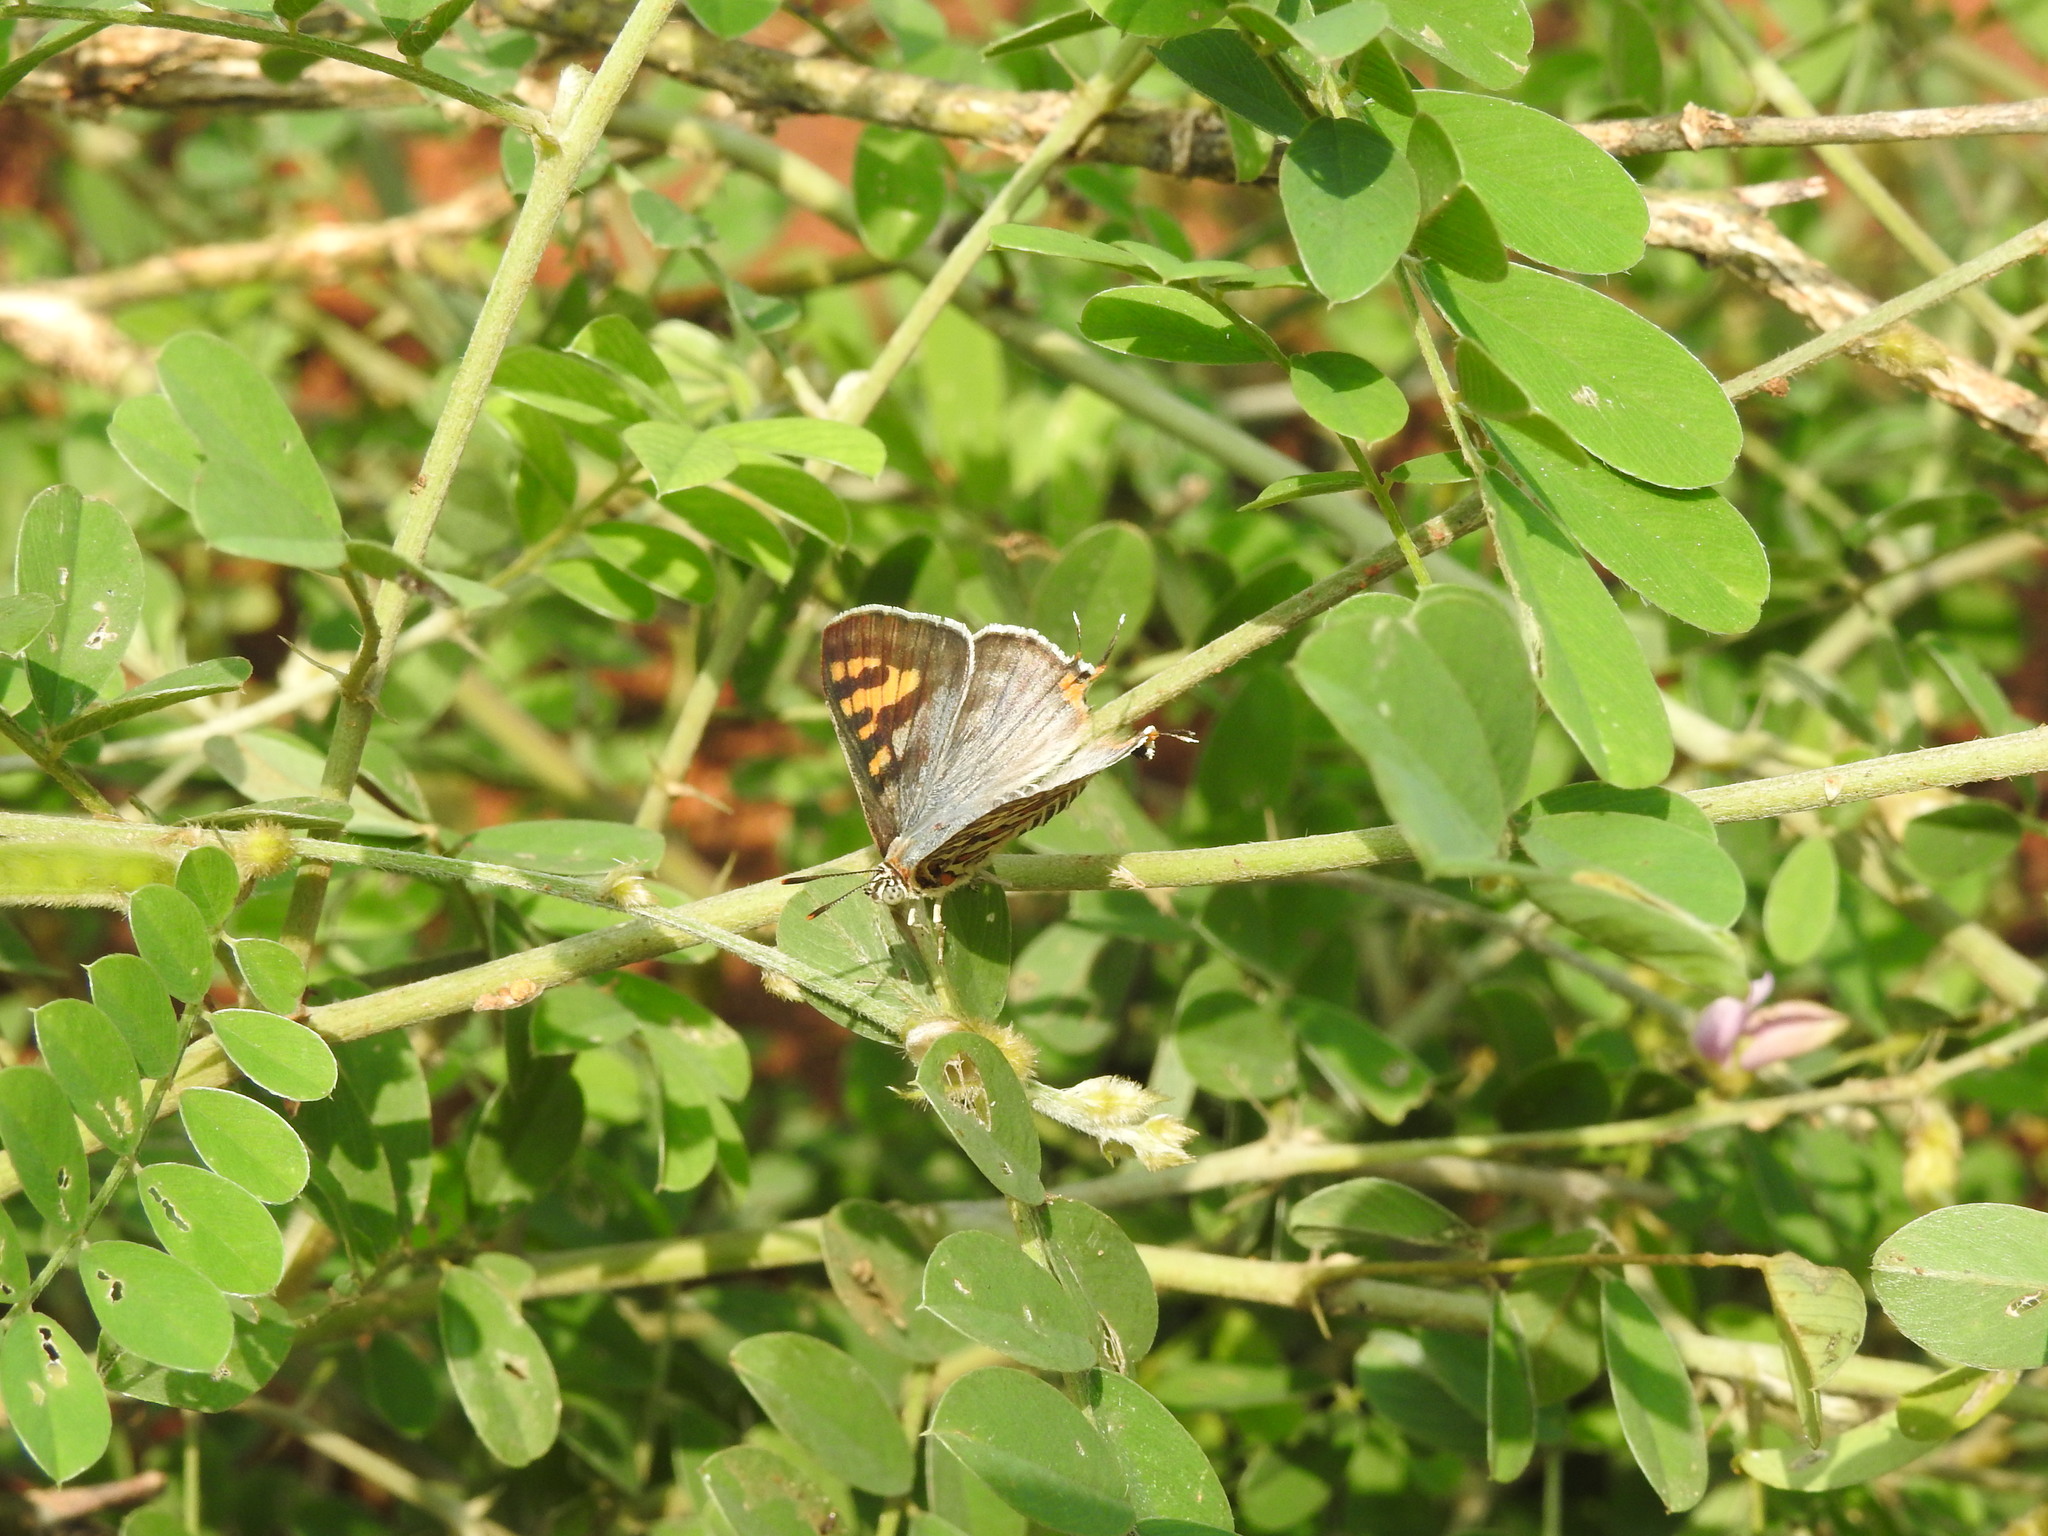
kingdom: Animalia
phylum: Arthropoda
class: Insecta
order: Lepidoptera
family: Lycaenidae
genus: Cigaritis
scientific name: Cigaritis vulcanus
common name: Common silverline
